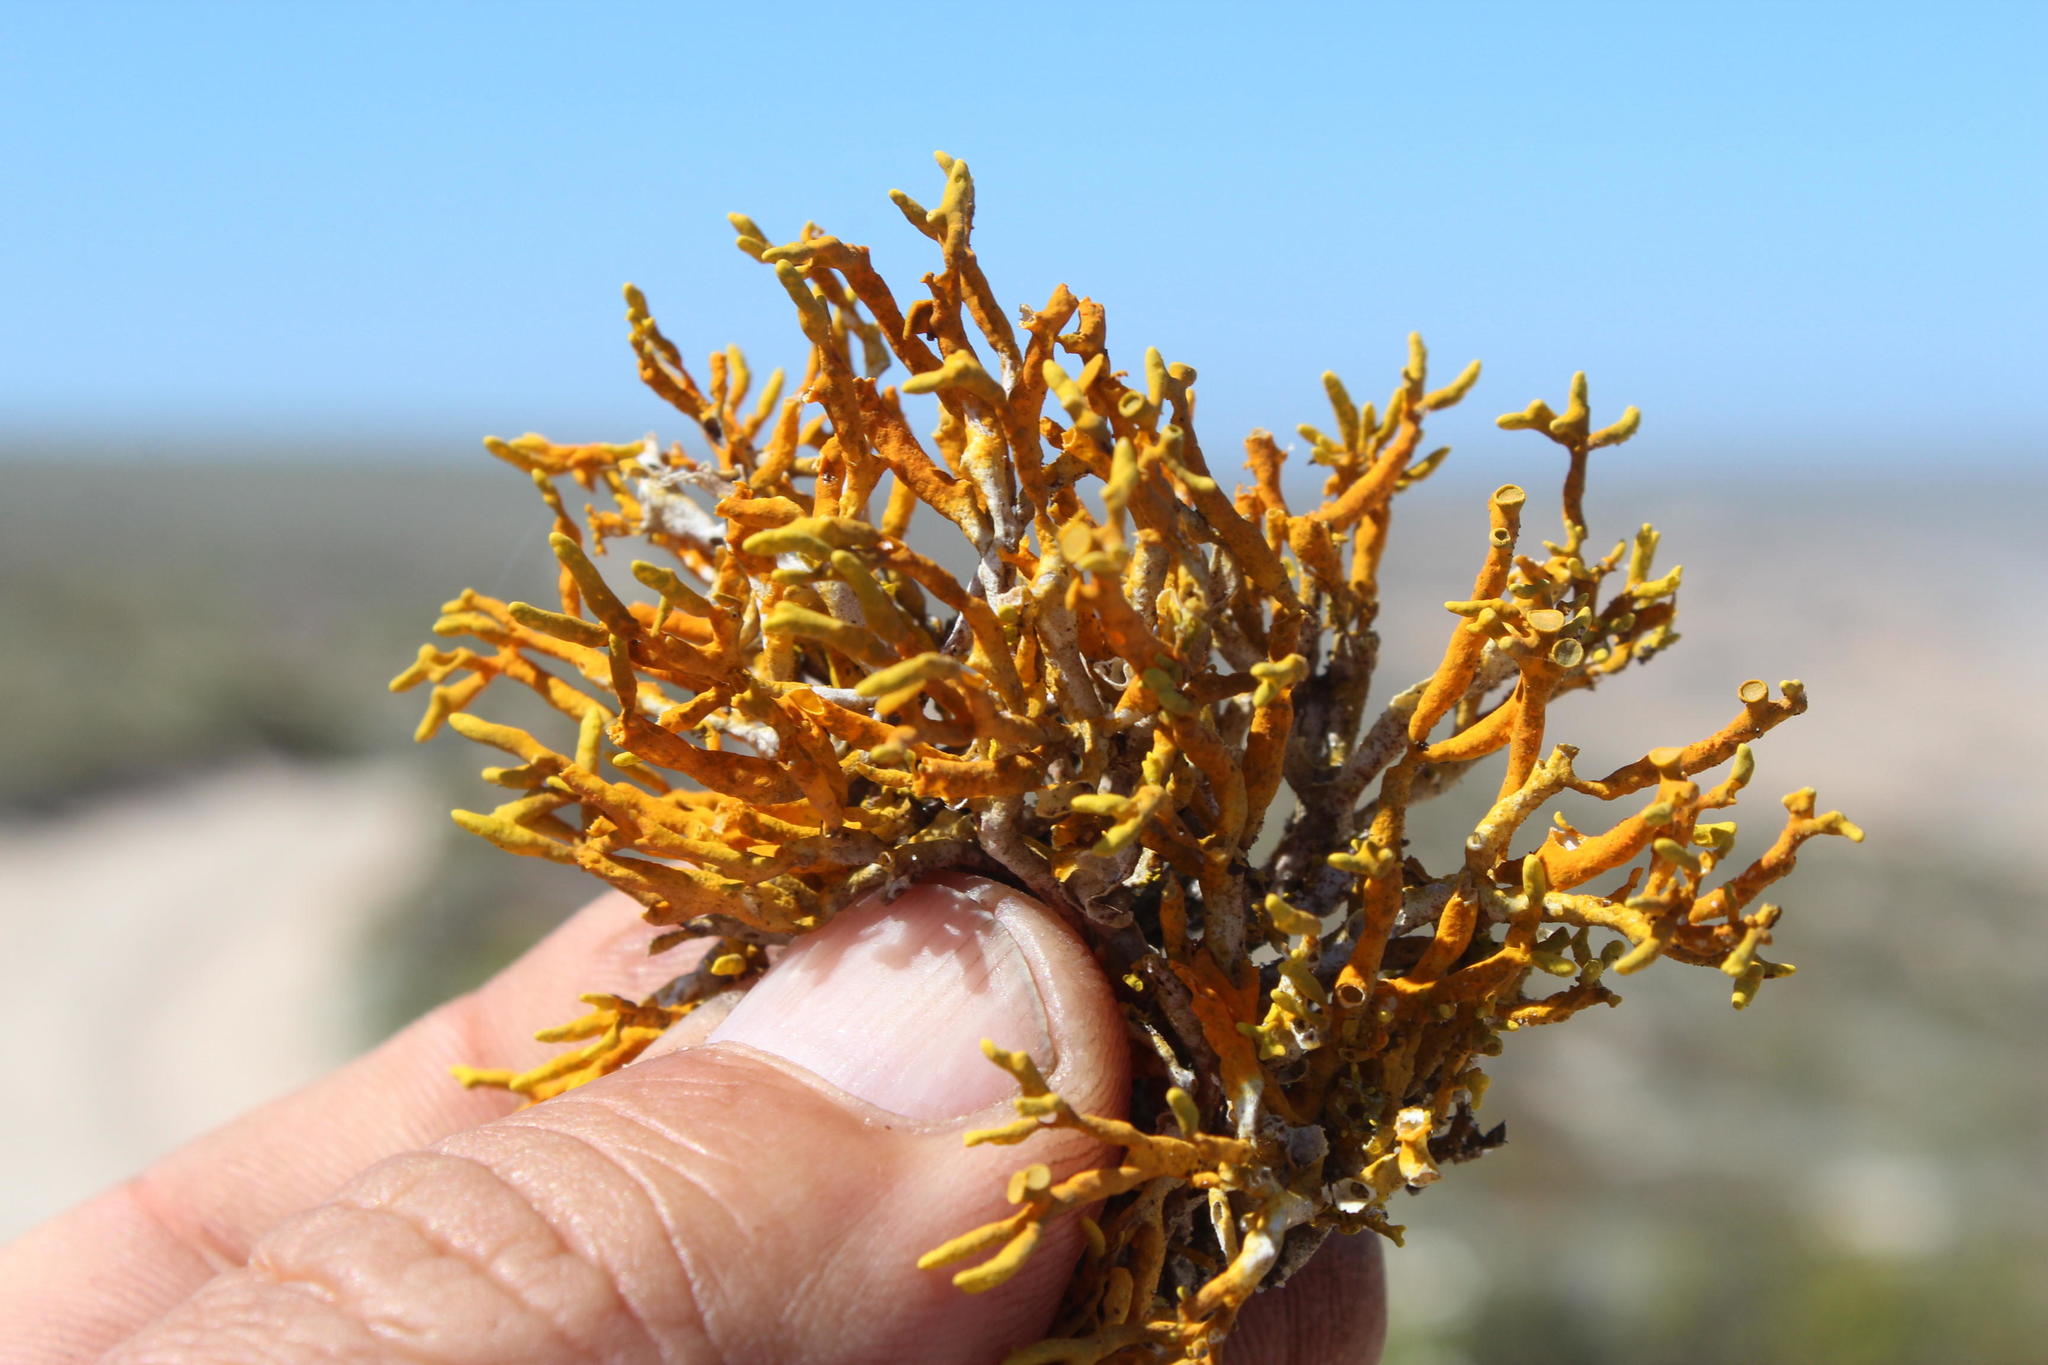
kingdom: Fungi
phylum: Ascomycota
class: Lecanoromycetes
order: Teloschistales
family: Teloschistaceae
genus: Dufourea
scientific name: Dufourea flammea
